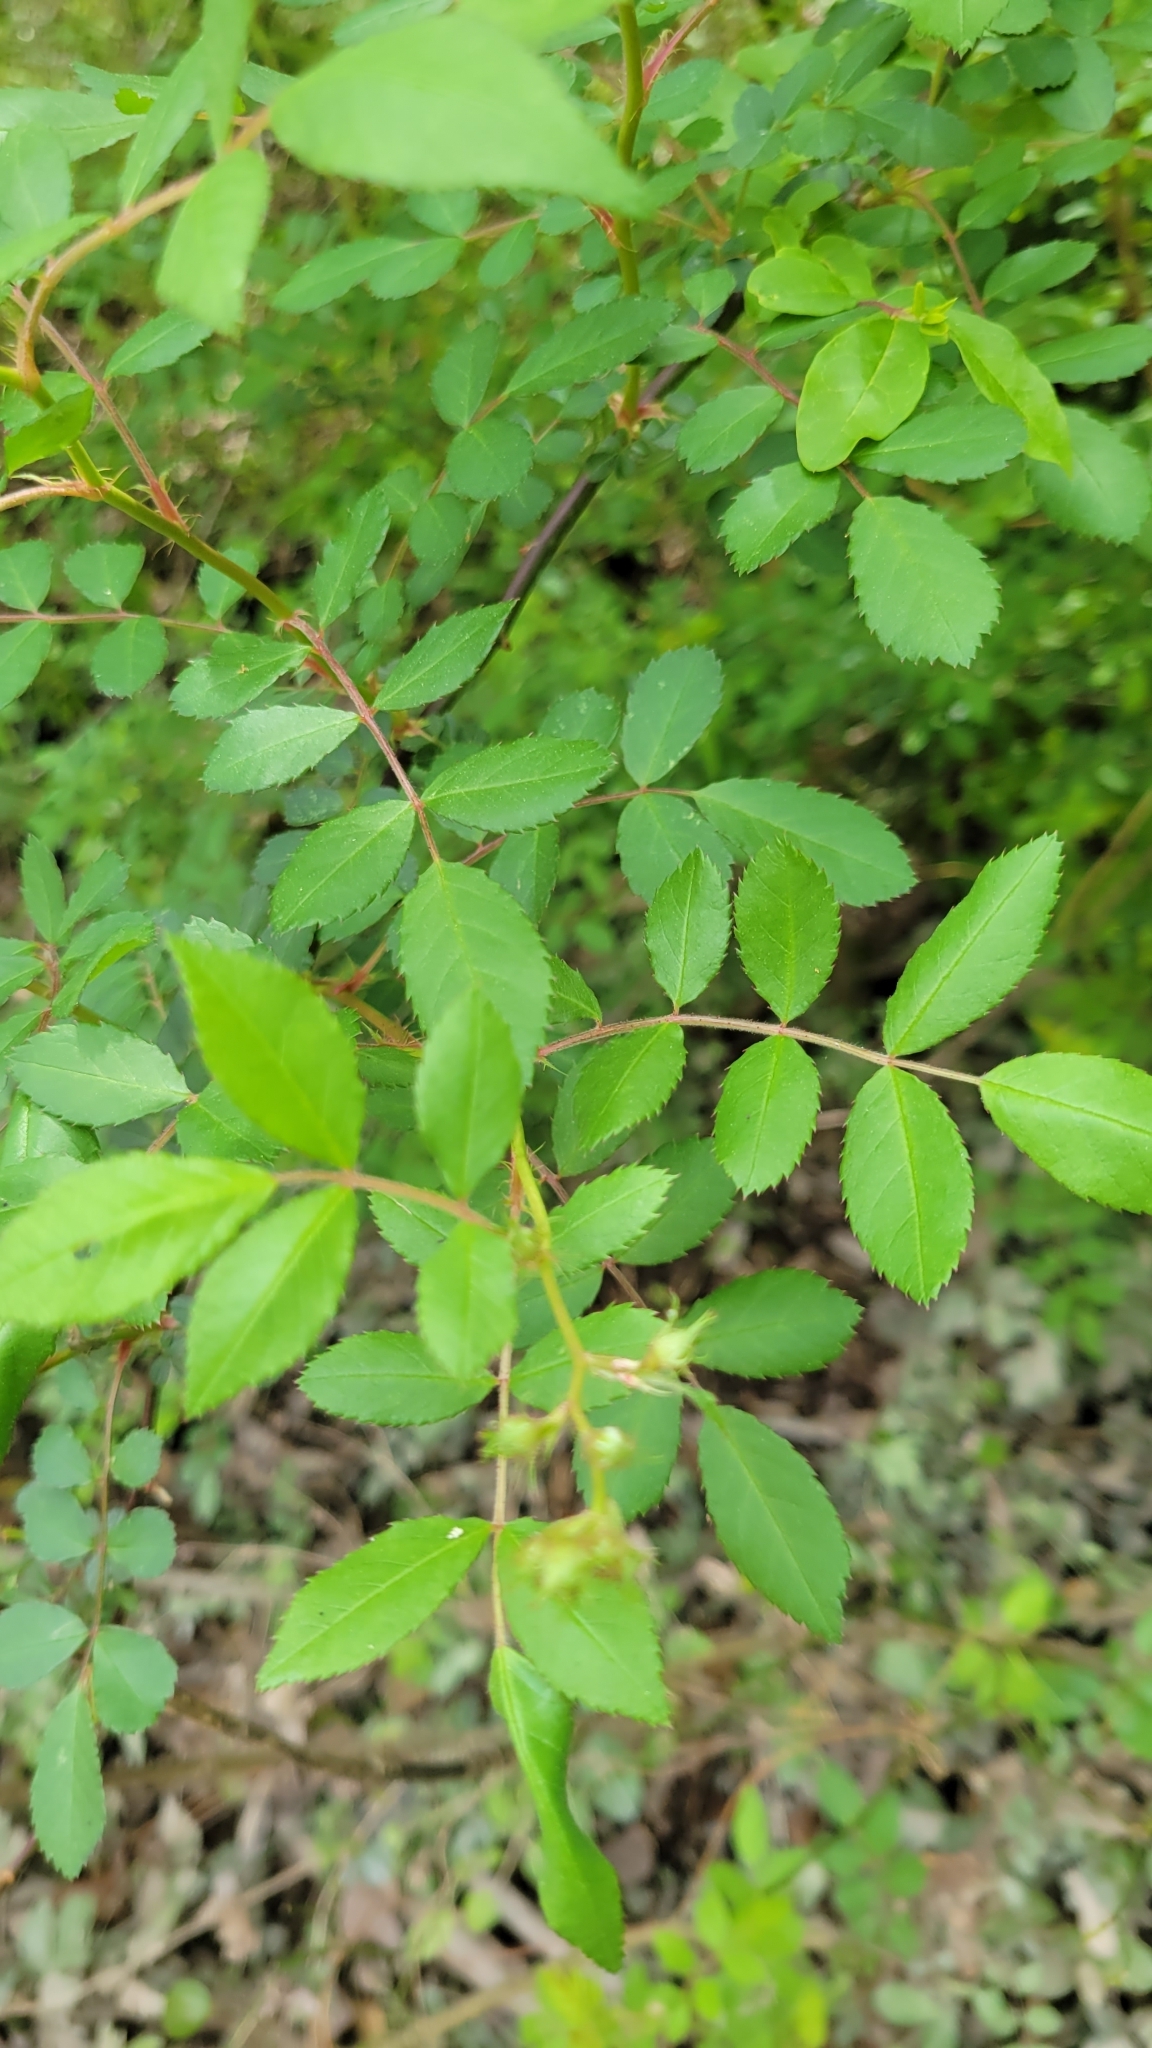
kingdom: Plantae
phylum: Tracheophyta
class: Magnoliopsida
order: Rosales
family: Rosaceae
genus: Rosa
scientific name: Rosa multiflora
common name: Multiflora rose
